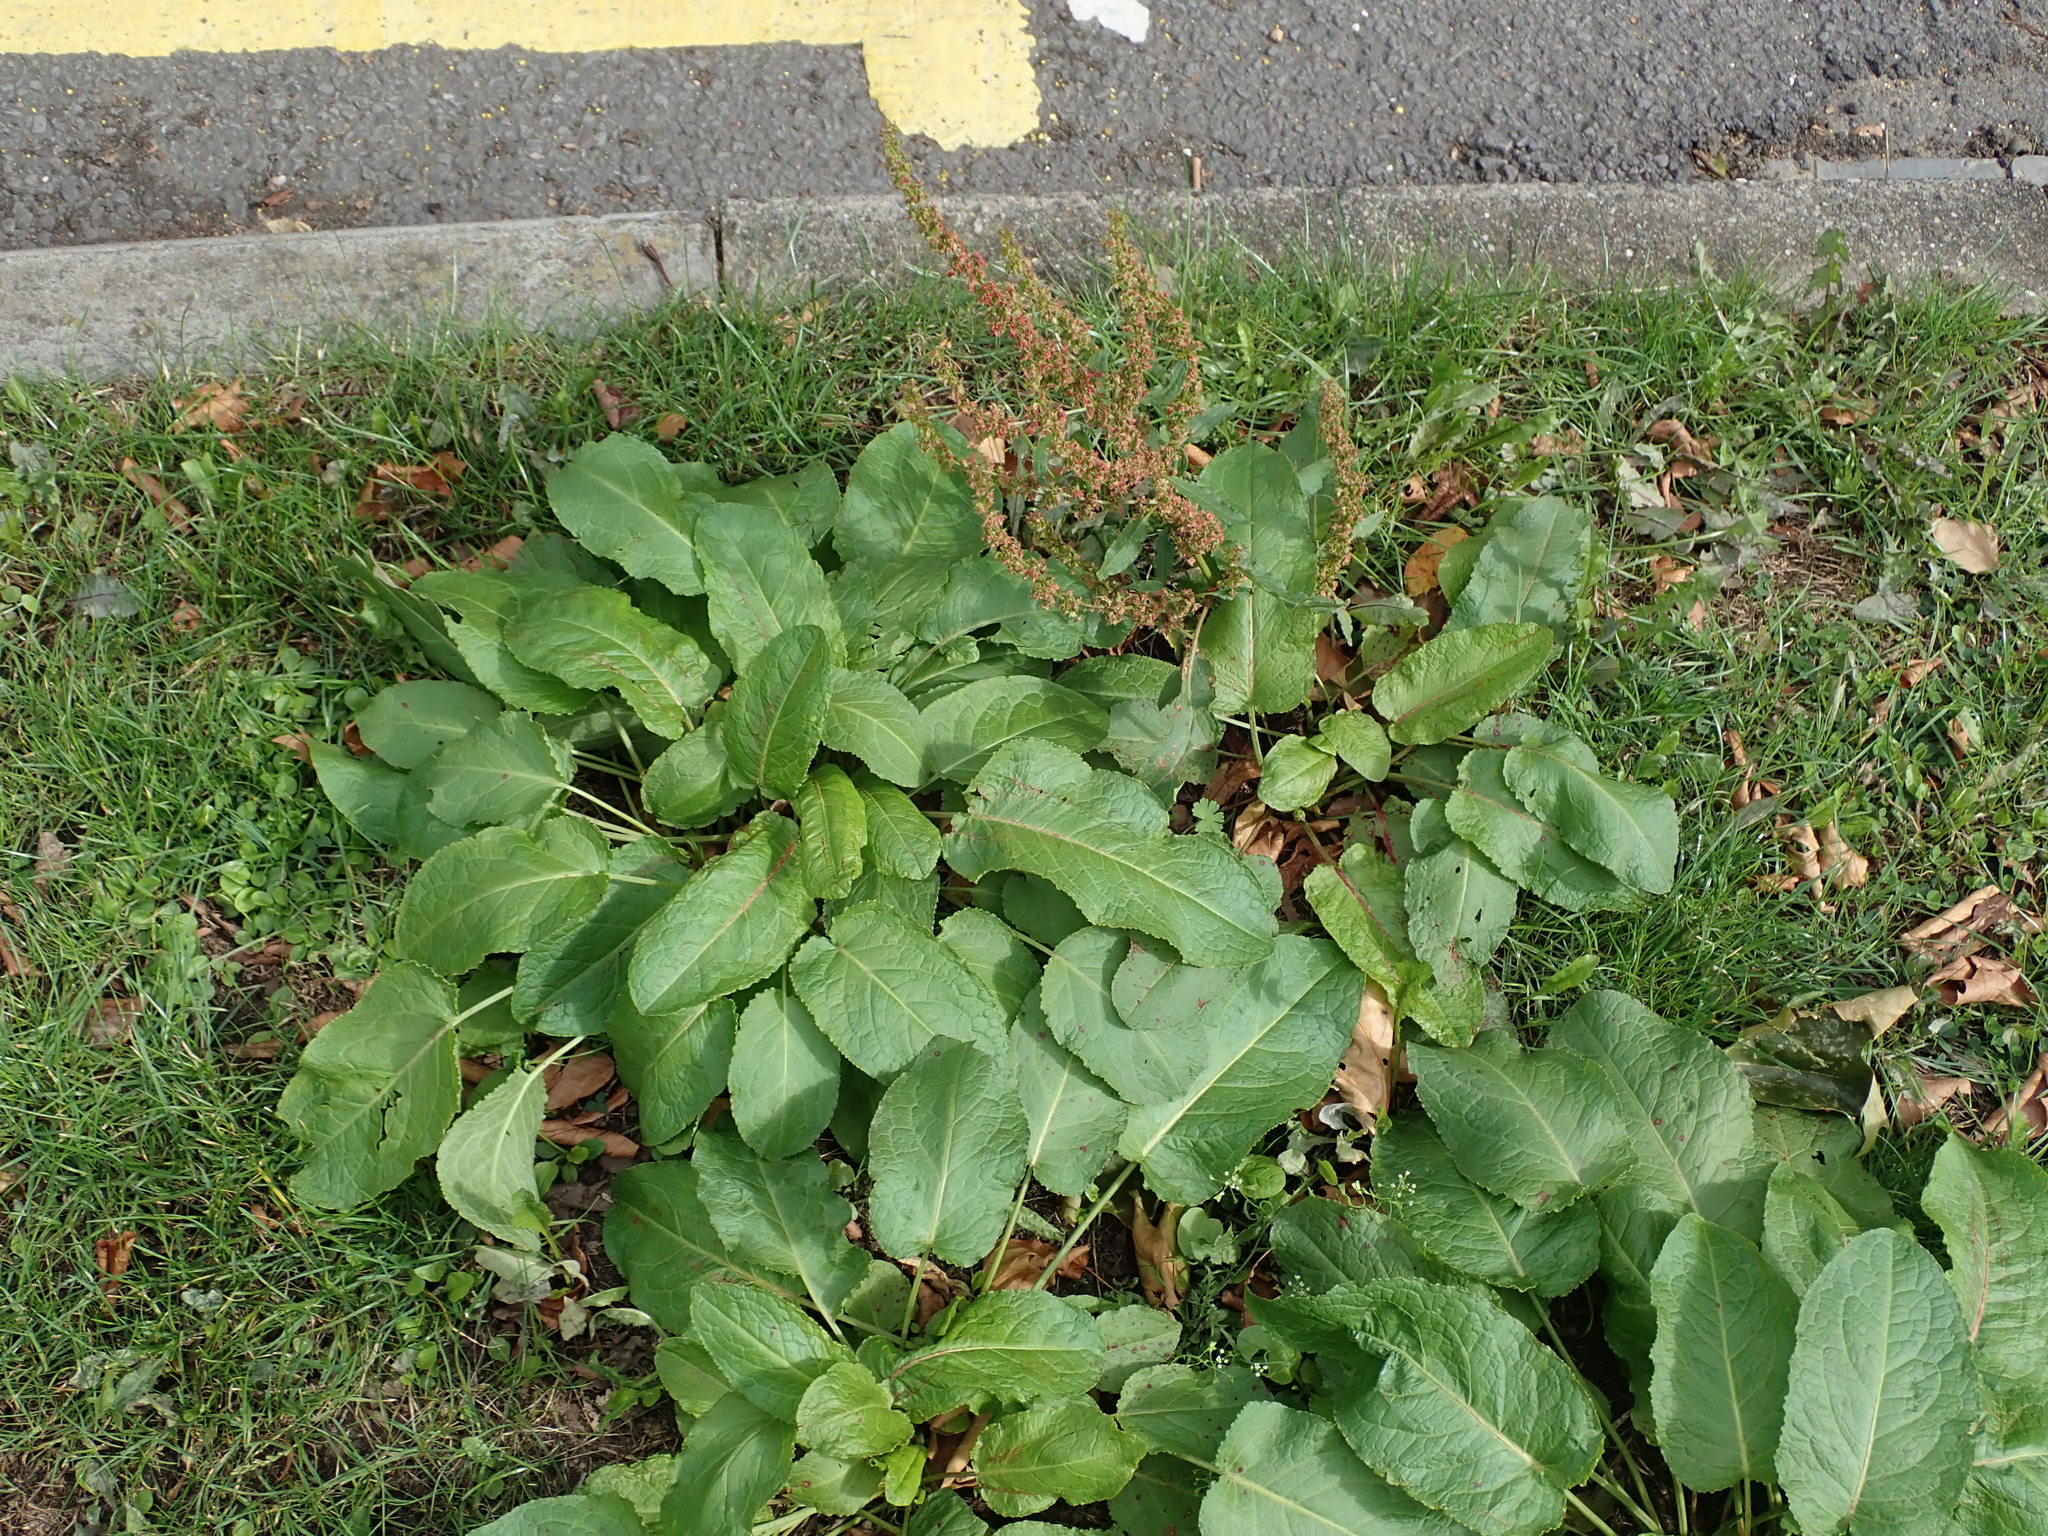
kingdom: Plantae
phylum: Tracheophyta
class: Magnoliopsida
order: Caryophyllales
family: Polygonaceae
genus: Rumex
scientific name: Rumex obtusifolius
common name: Bitter dock
